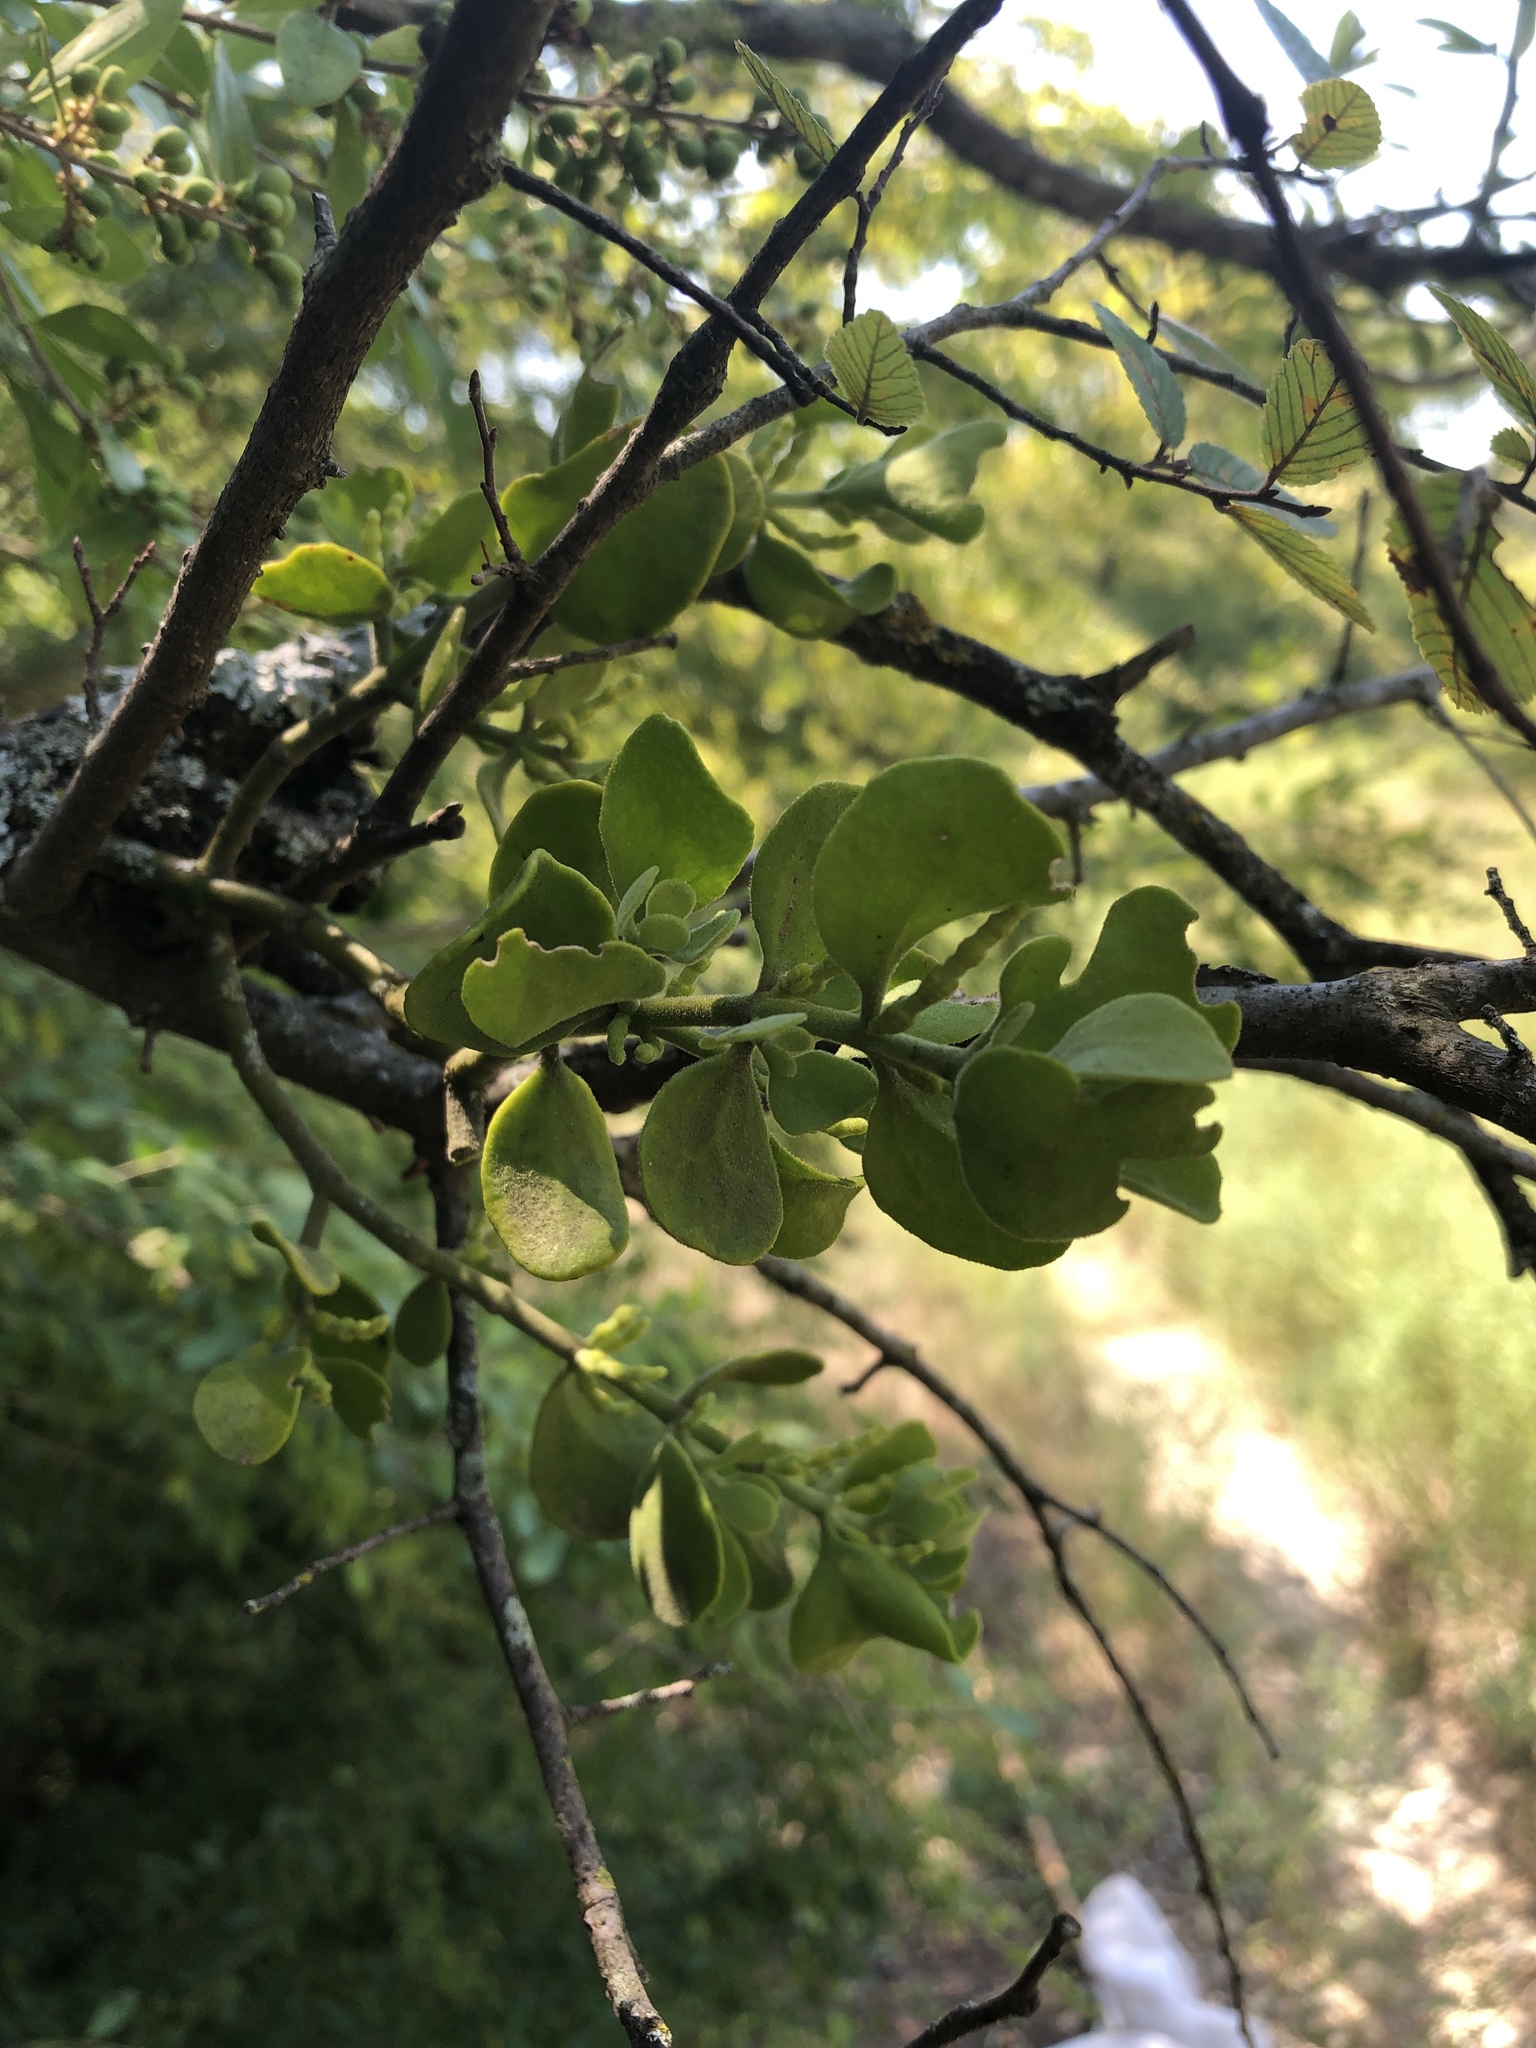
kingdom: Plantae
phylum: Tracheophyta
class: Magnoliopsida
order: Santalales
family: Viscaceae
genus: Phoradendron
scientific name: Phoradendron leucarpum
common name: Pacific mistletoe
